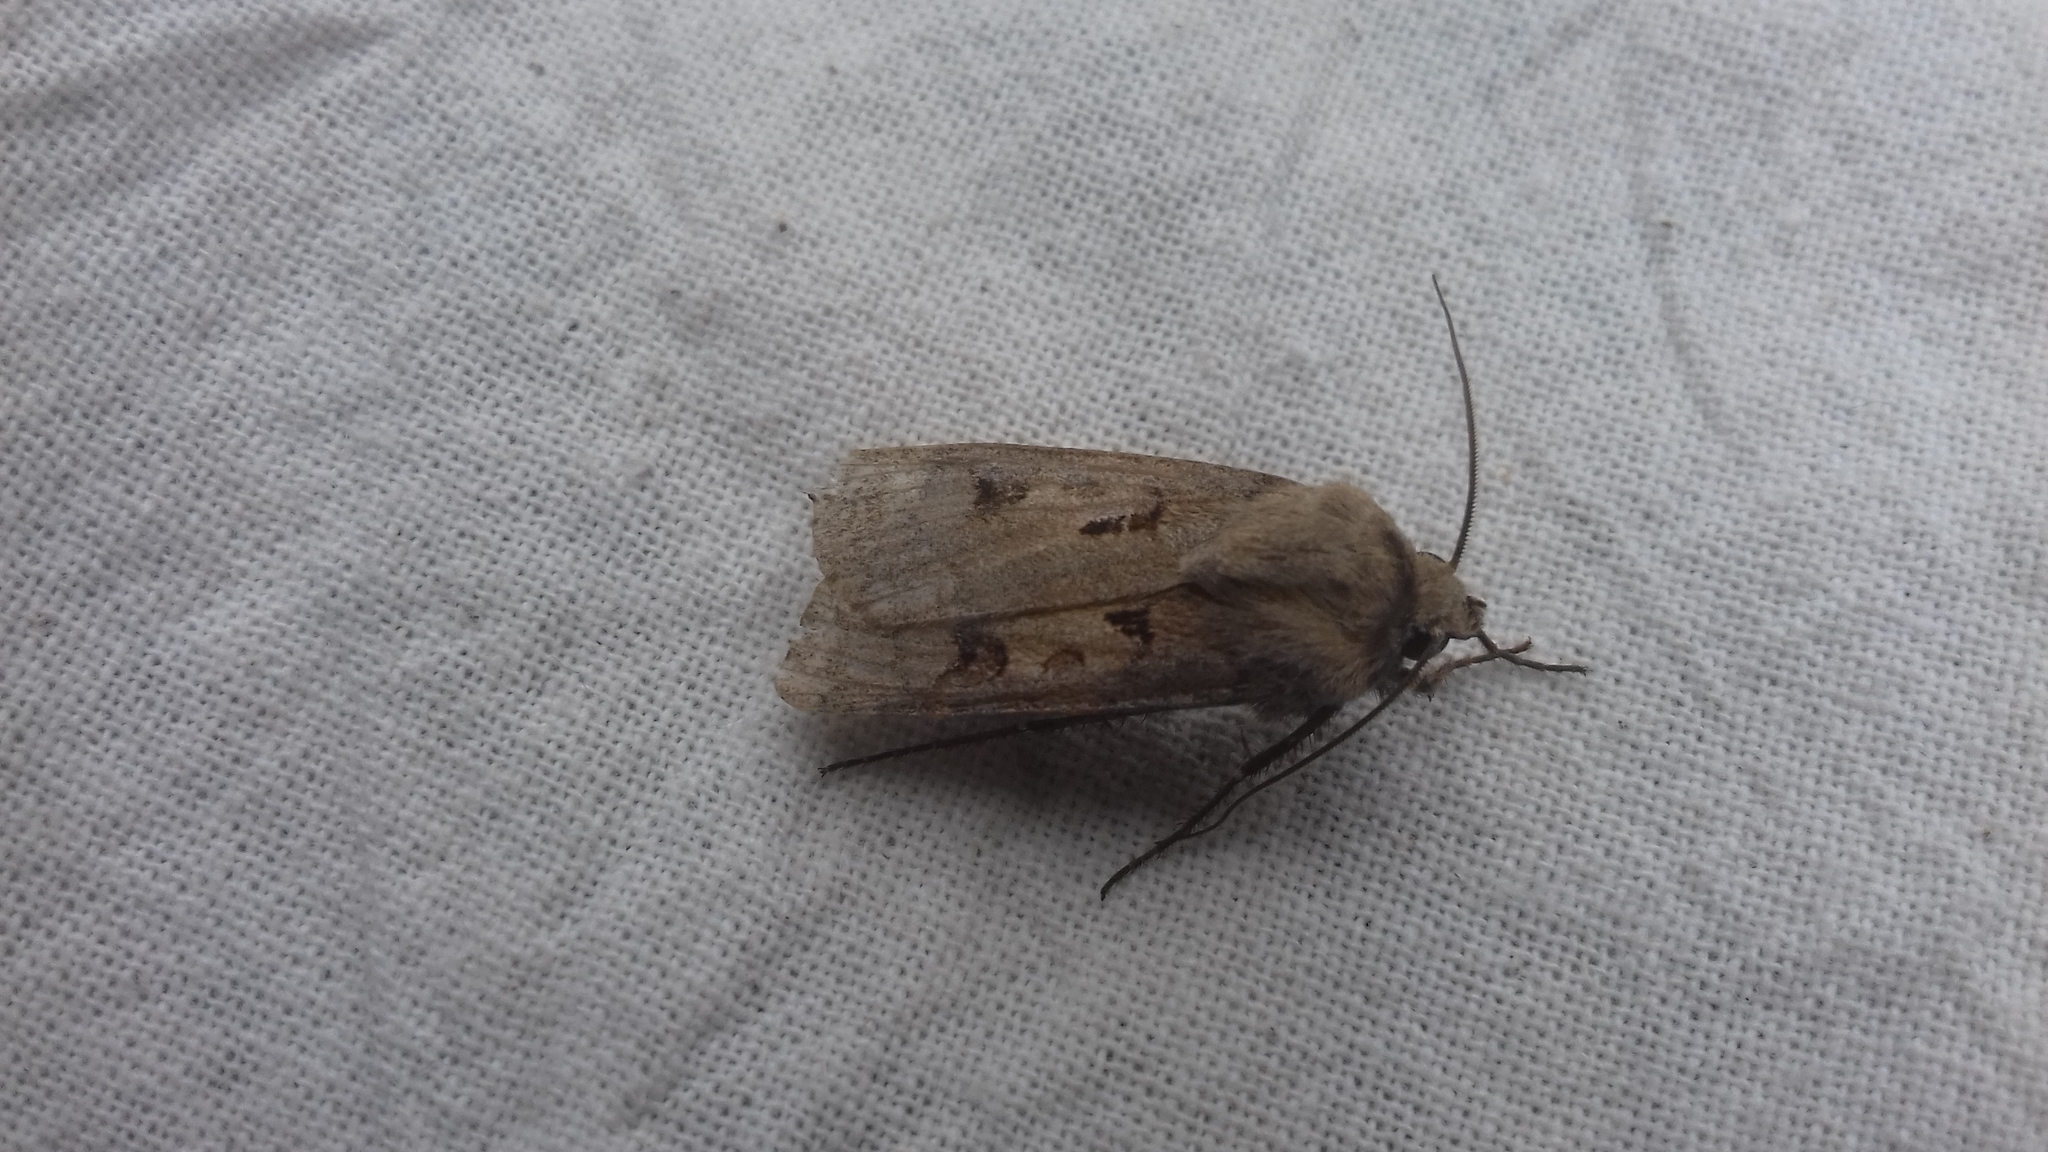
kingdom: Animalia
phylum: Arthropoda
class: Insecta
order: Lepidoptera
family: Noctuidae
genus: Agrotis
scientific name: Agrotis exclamationis
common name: Heart and dart
